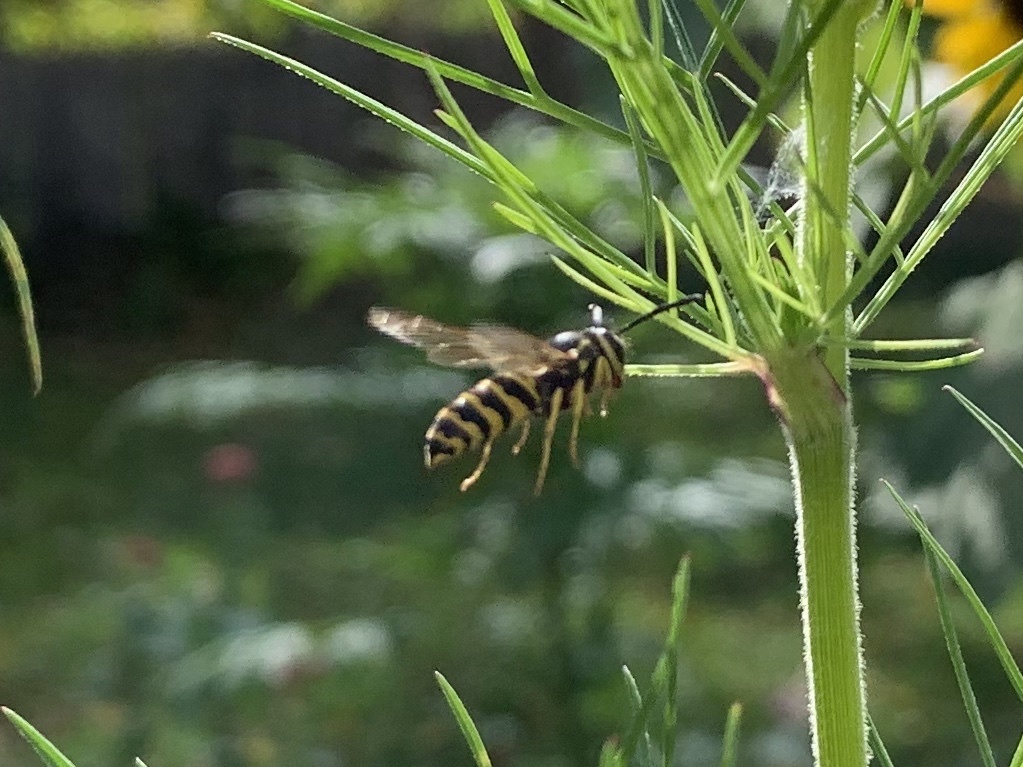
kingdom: Animalia
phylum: Arthropoda
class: Insecta
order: Hymenoptera
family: Vespidae
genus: Vespula
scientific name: Vespula maculifrons
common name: Eastern yellowjacket
